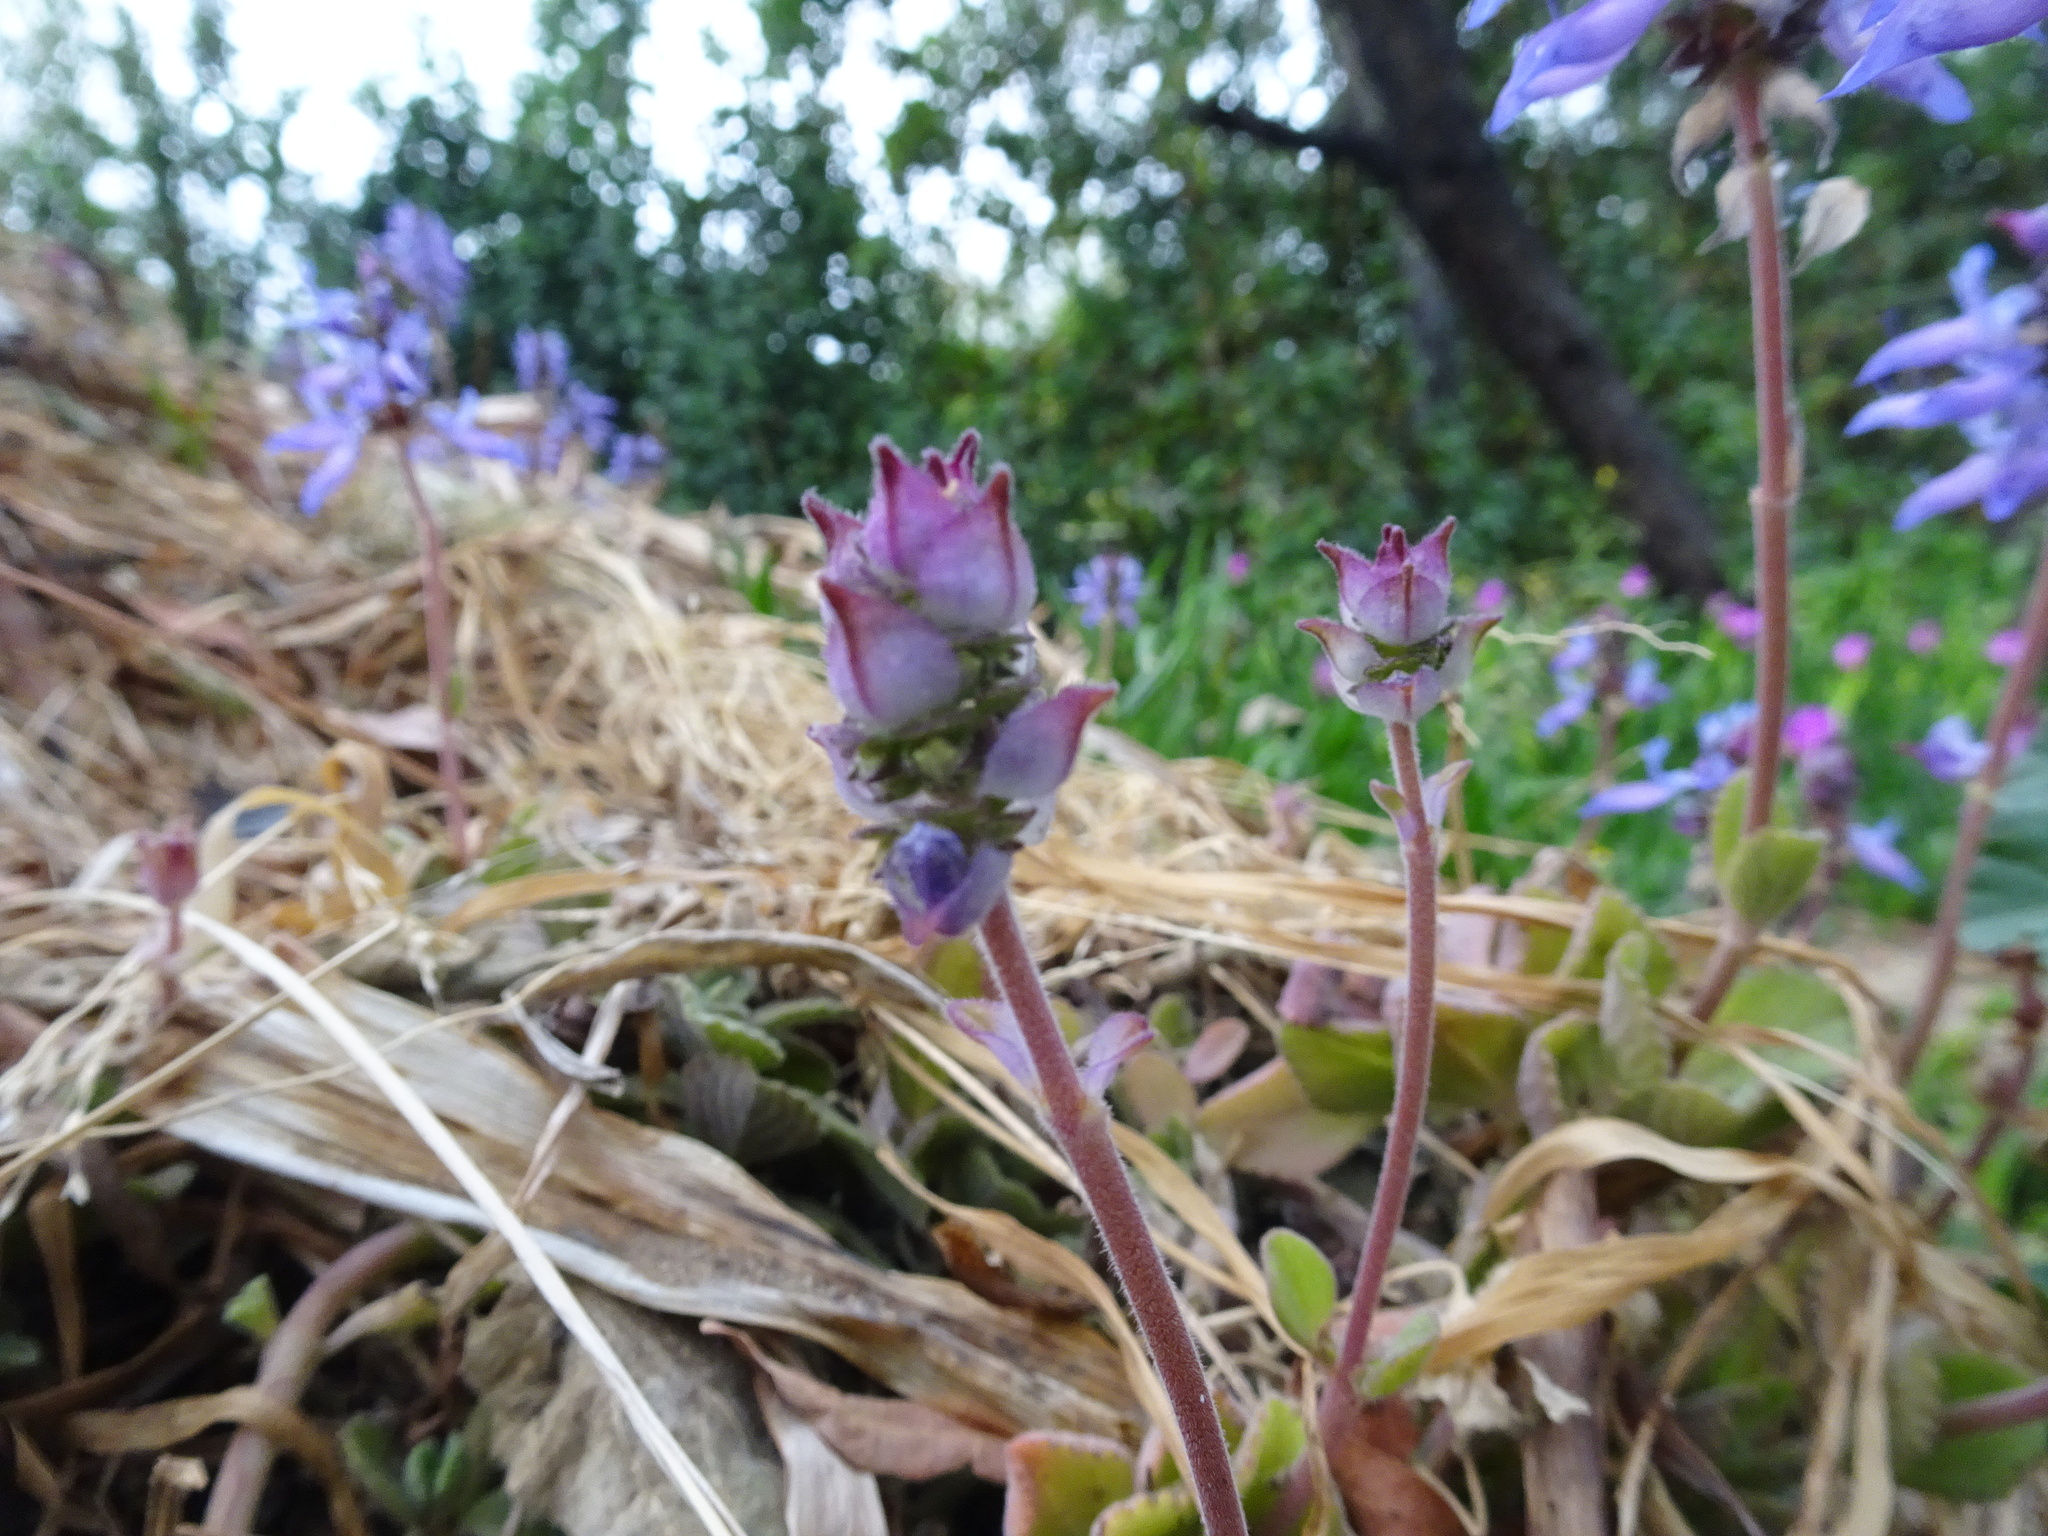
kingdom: Plantae
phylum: Tracheophyta
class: Magnoliopsida
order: Lamiales
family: Lamiaceae
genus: Coleus
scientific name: Coleus neochilus
